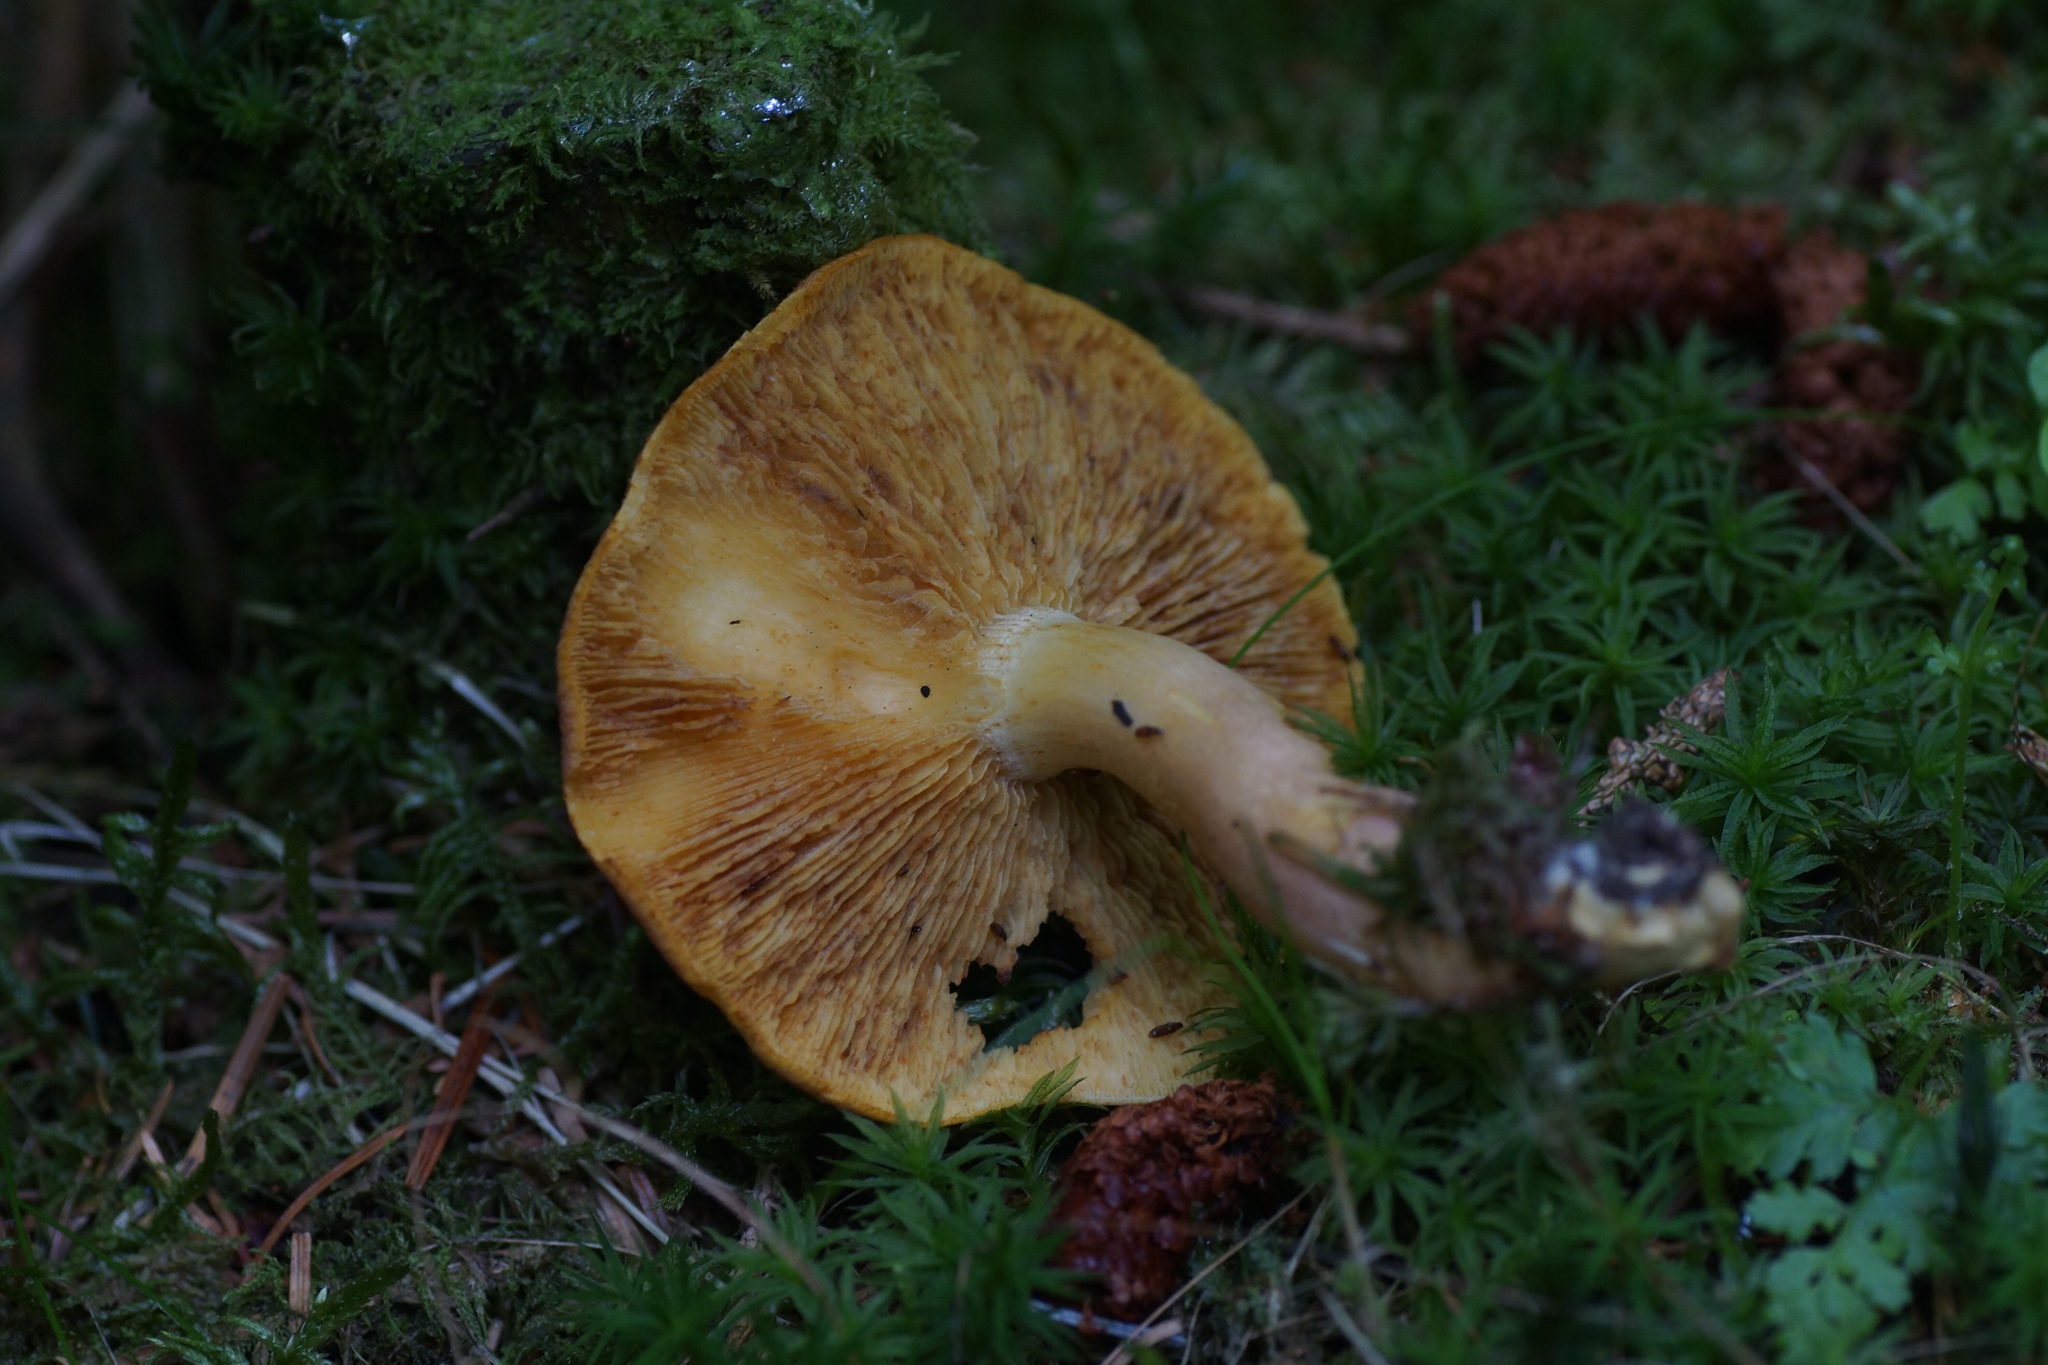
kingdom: Fungi
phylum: Basidiomycota
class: Agaricomycetes
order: Agaricales
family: Tricholomataceae
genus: Tricholomopsis
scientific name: Tricholomopsis rutilans
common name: Plums and custard
